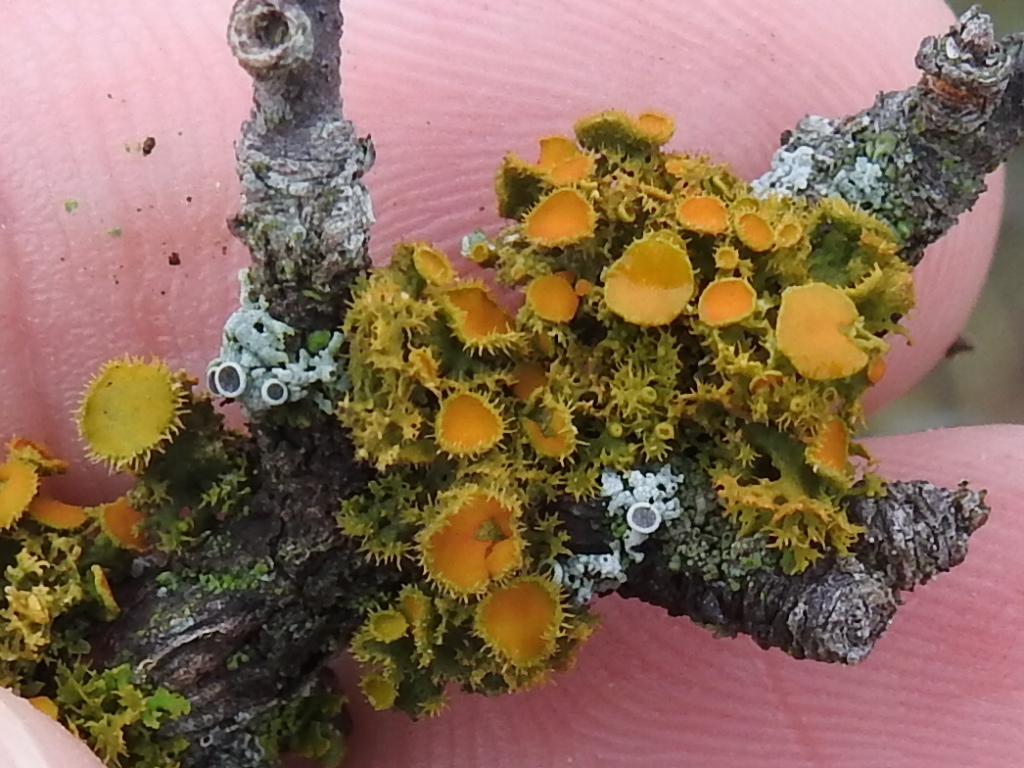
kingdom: Fungi
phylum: Ascomycota
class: Lecanoromycetes
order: Teloschistales
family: Teloschistaceae
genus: Niorma
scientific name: Niorma chrysophthalma
